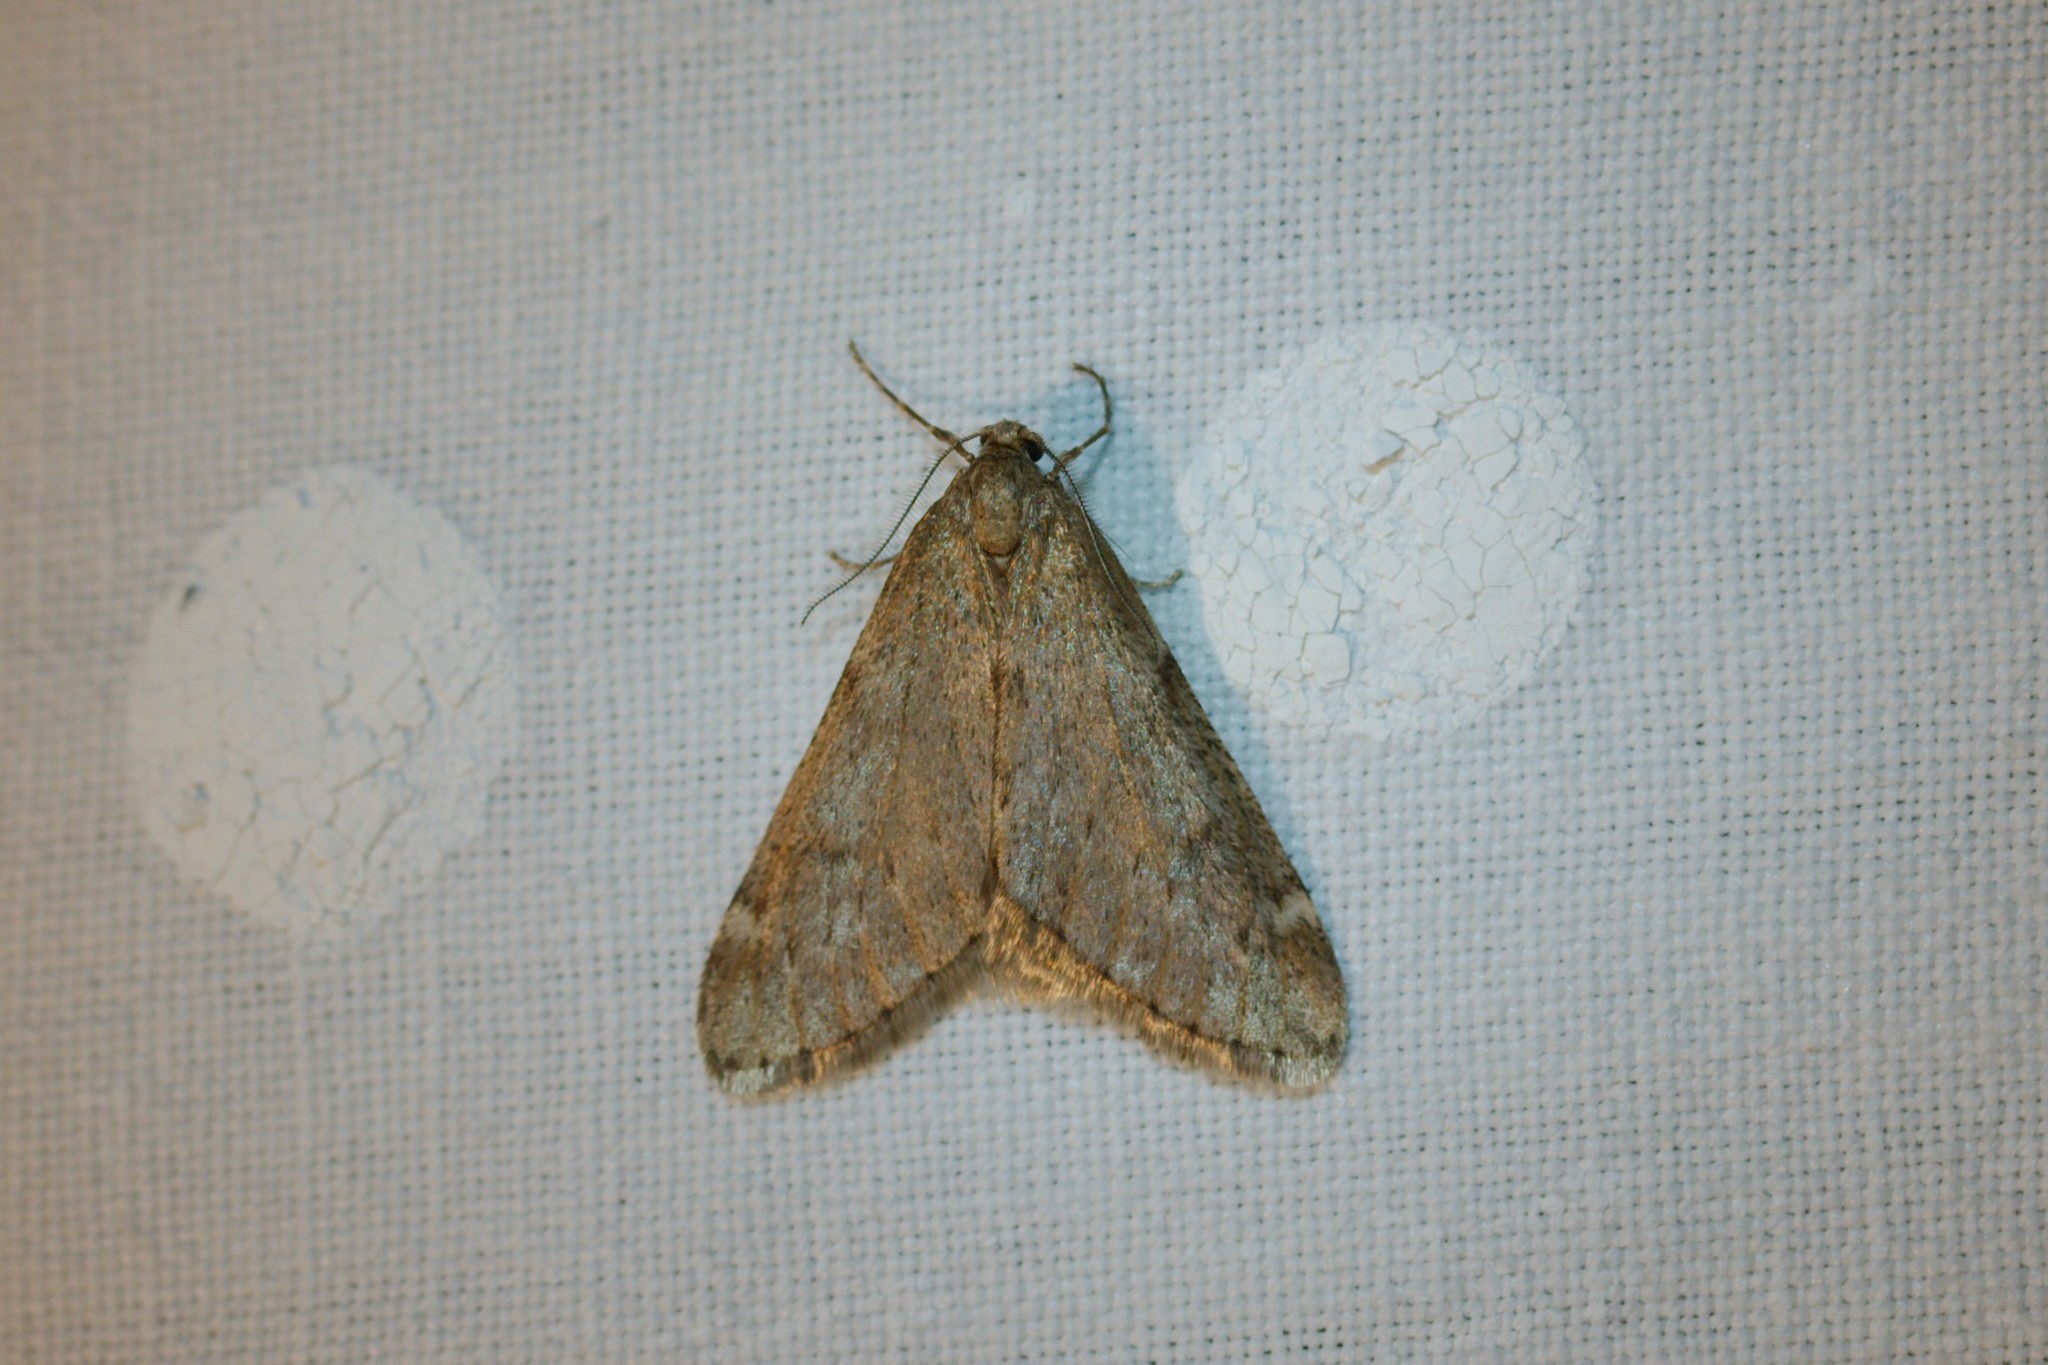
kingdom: Animalia
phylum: Arthropoda
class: Insecta
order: Lepidoptera
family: Geometridae
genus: Alsophila
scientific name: Alsophila aescularia
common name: March moth
